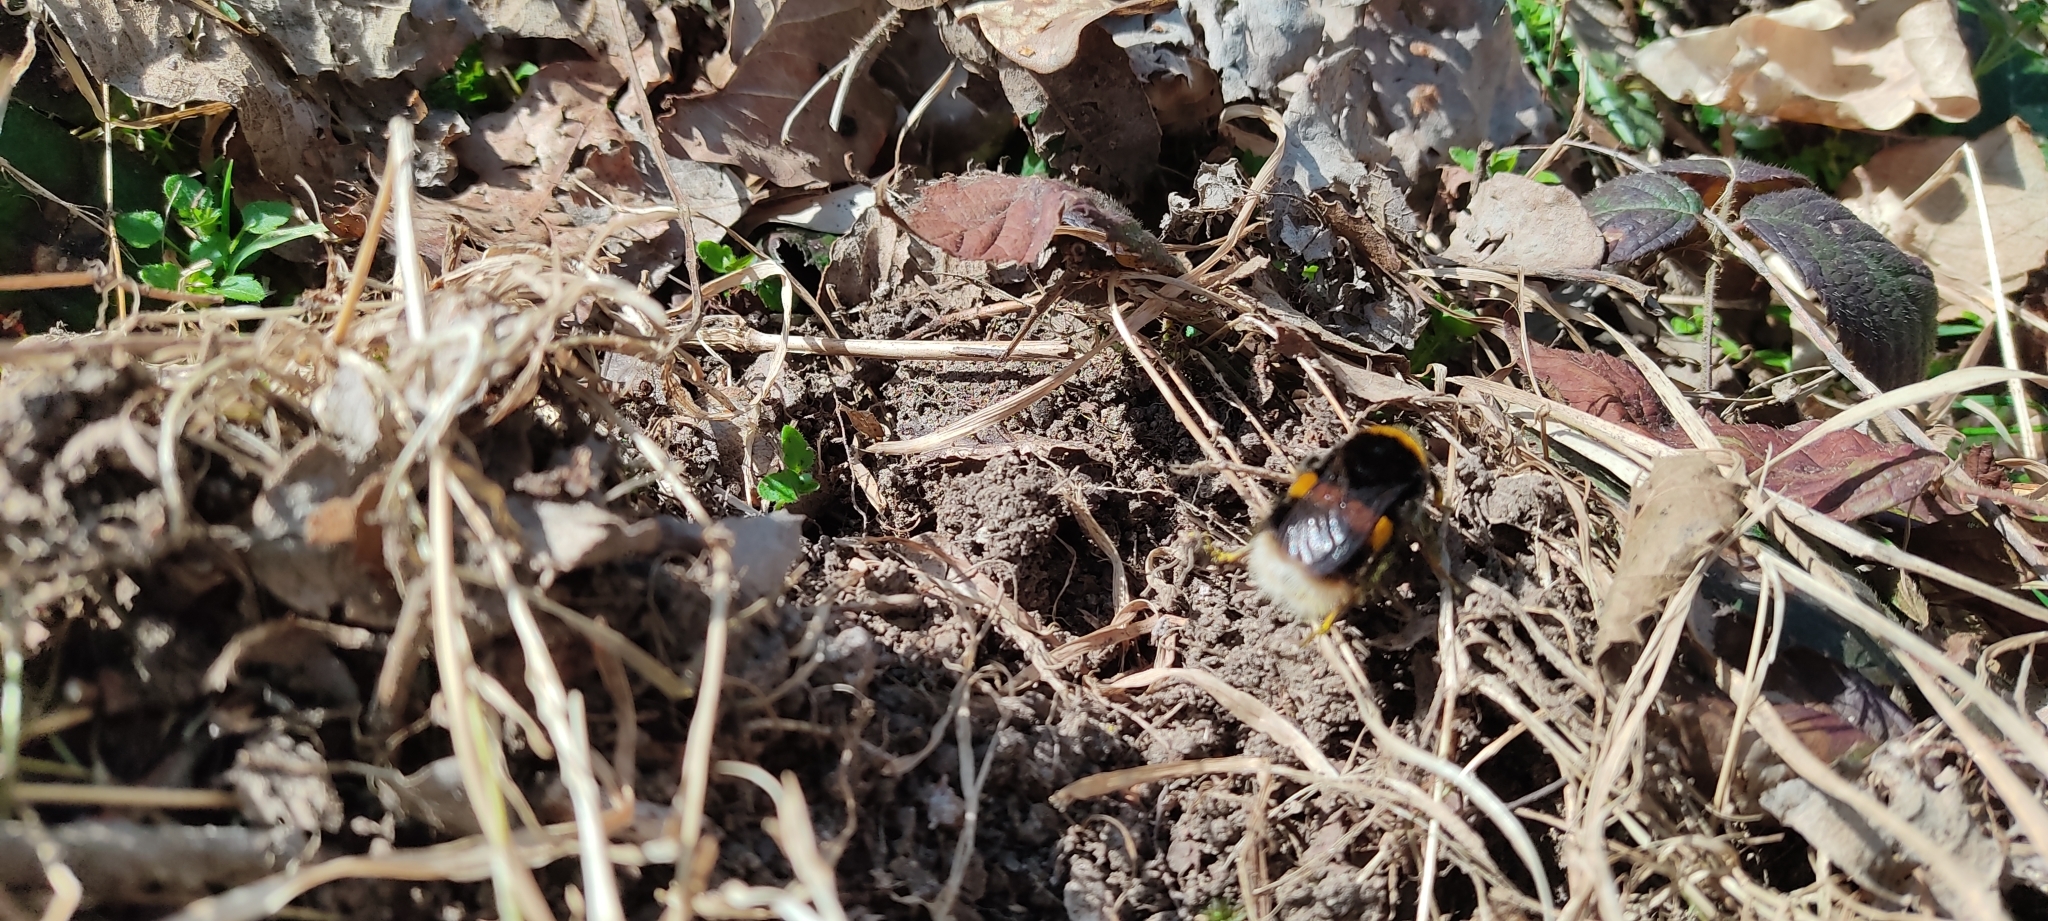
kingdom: Animalia
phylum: Arthropoda
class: Insecta
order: Hymenoptera
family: Apidae
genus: Bombus
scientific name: Bombus terrestris
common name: Buff-tailed bumblebee
